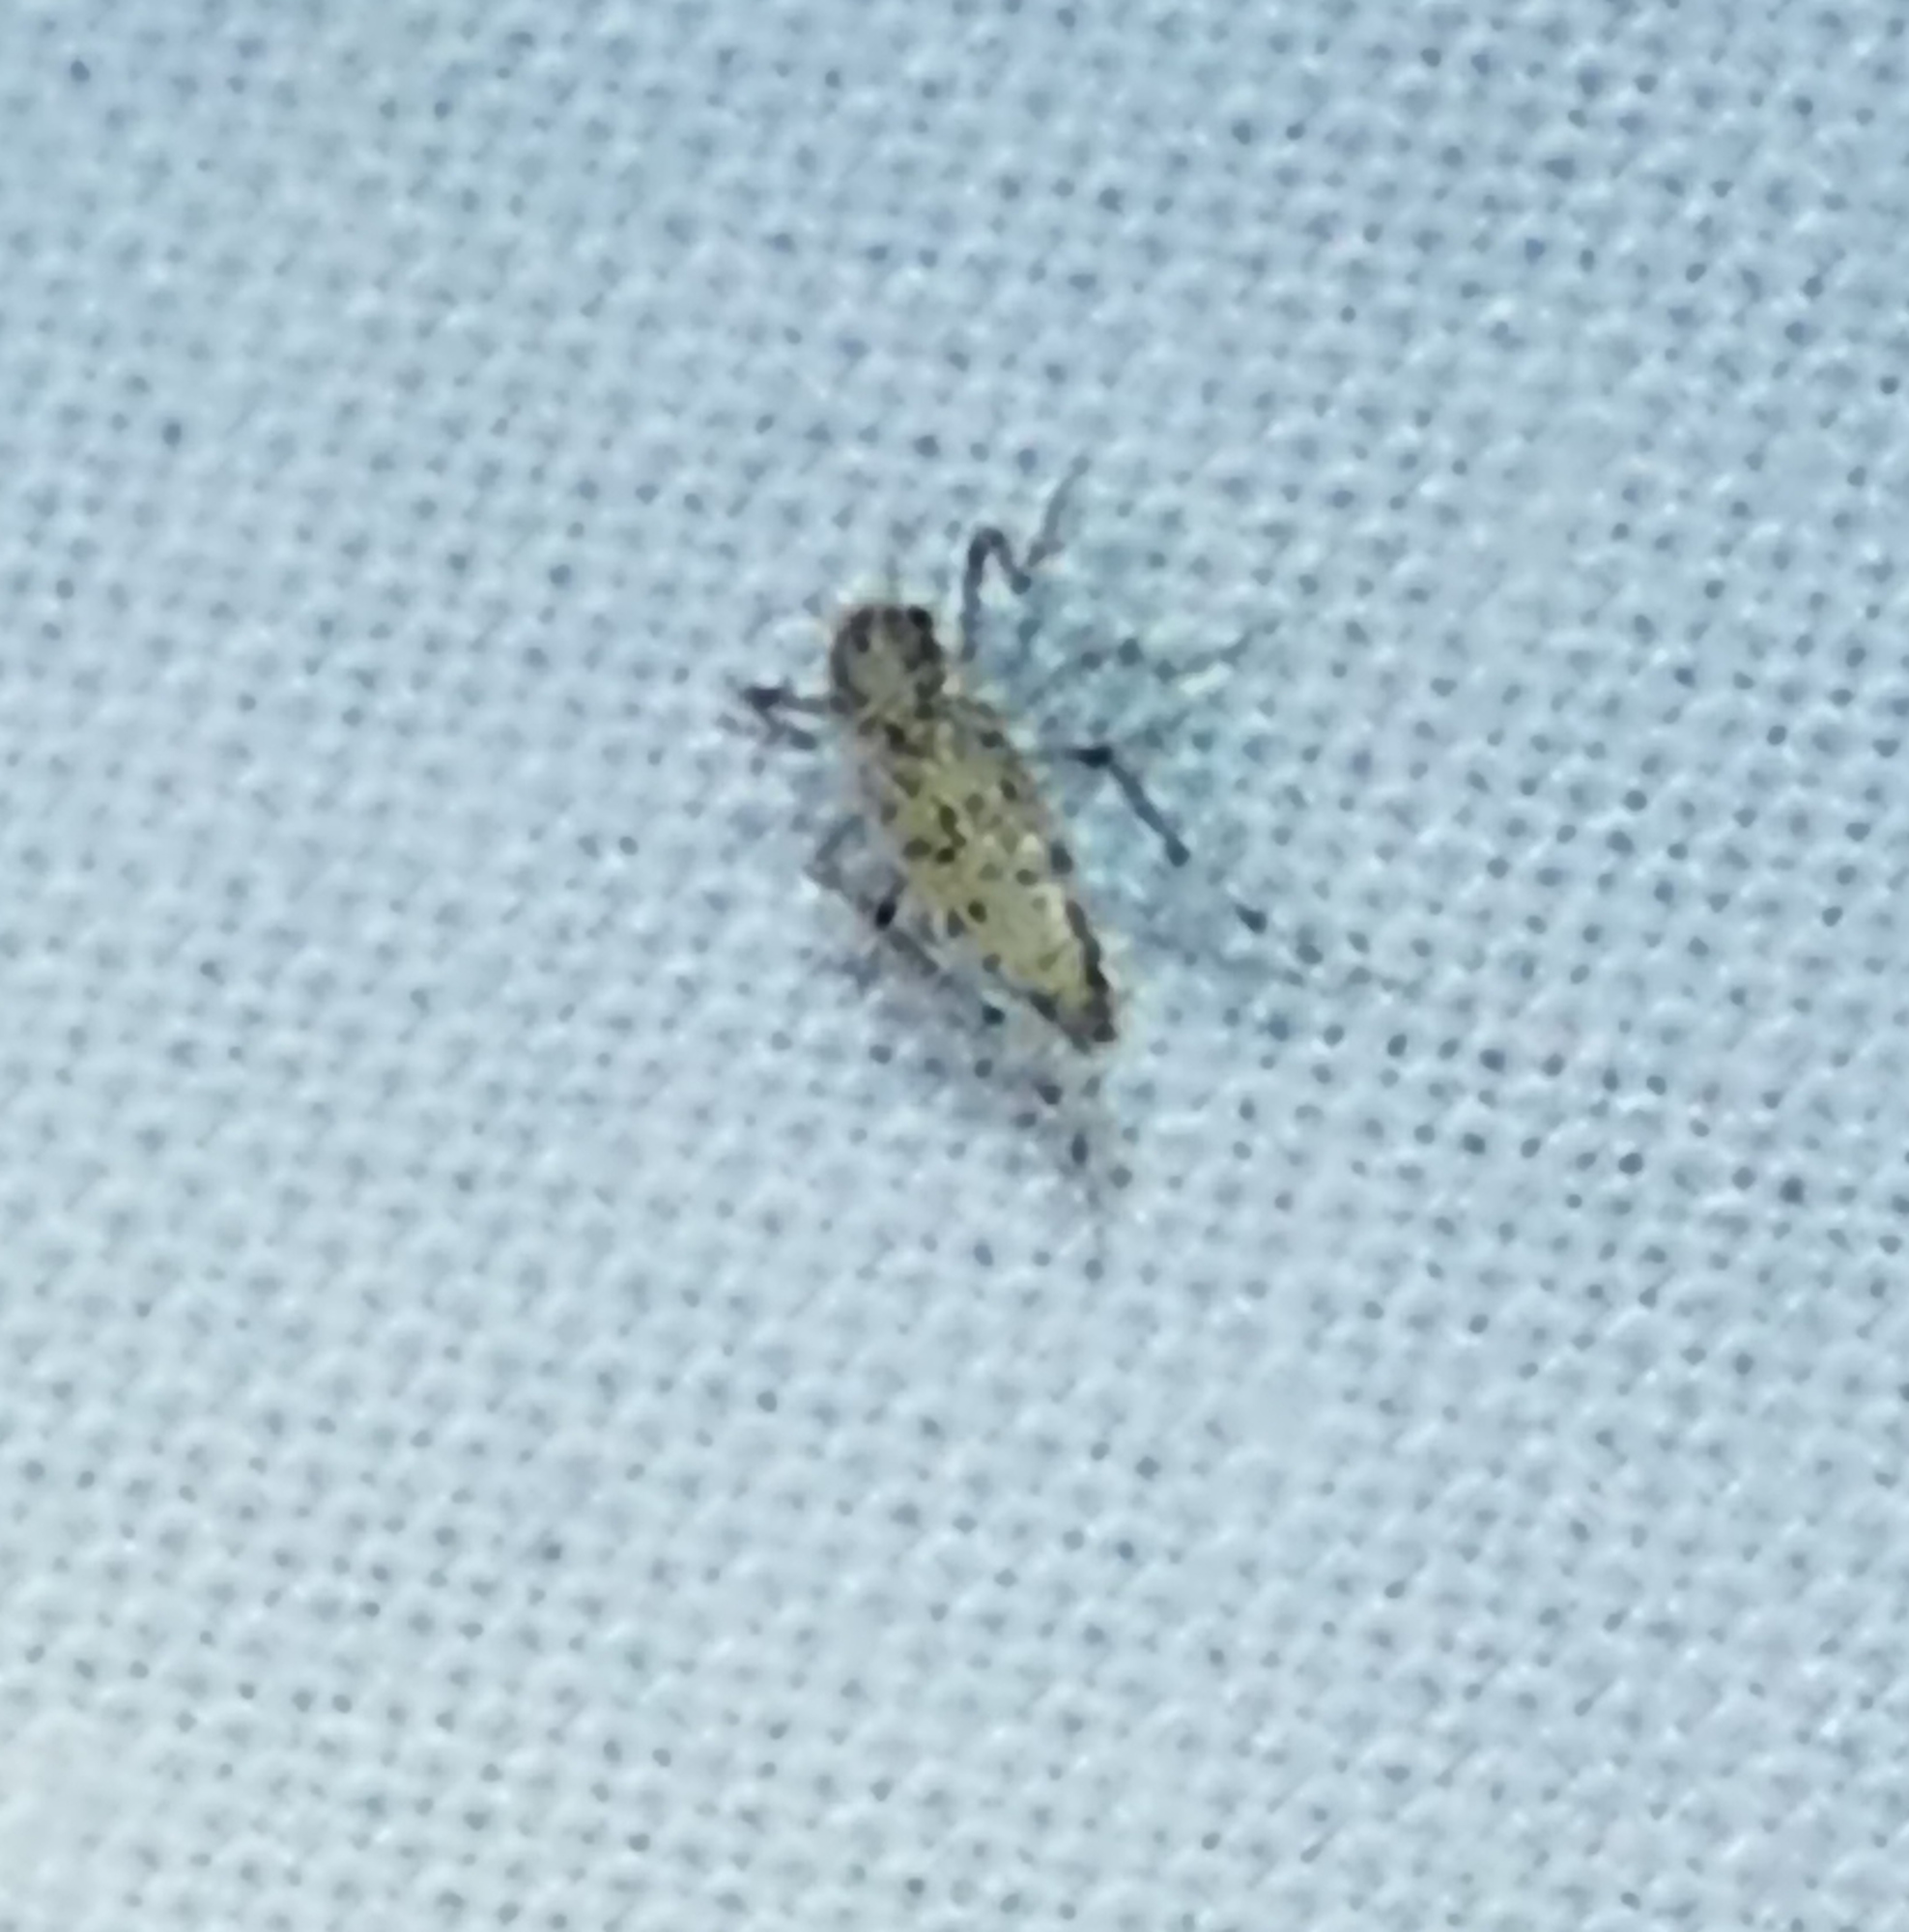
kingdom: Animalia
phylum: Arthropoda
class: Insecta
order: Diptera
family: Chaoboridae
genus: Chaoborus
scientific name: Chaoborus punctipennis
